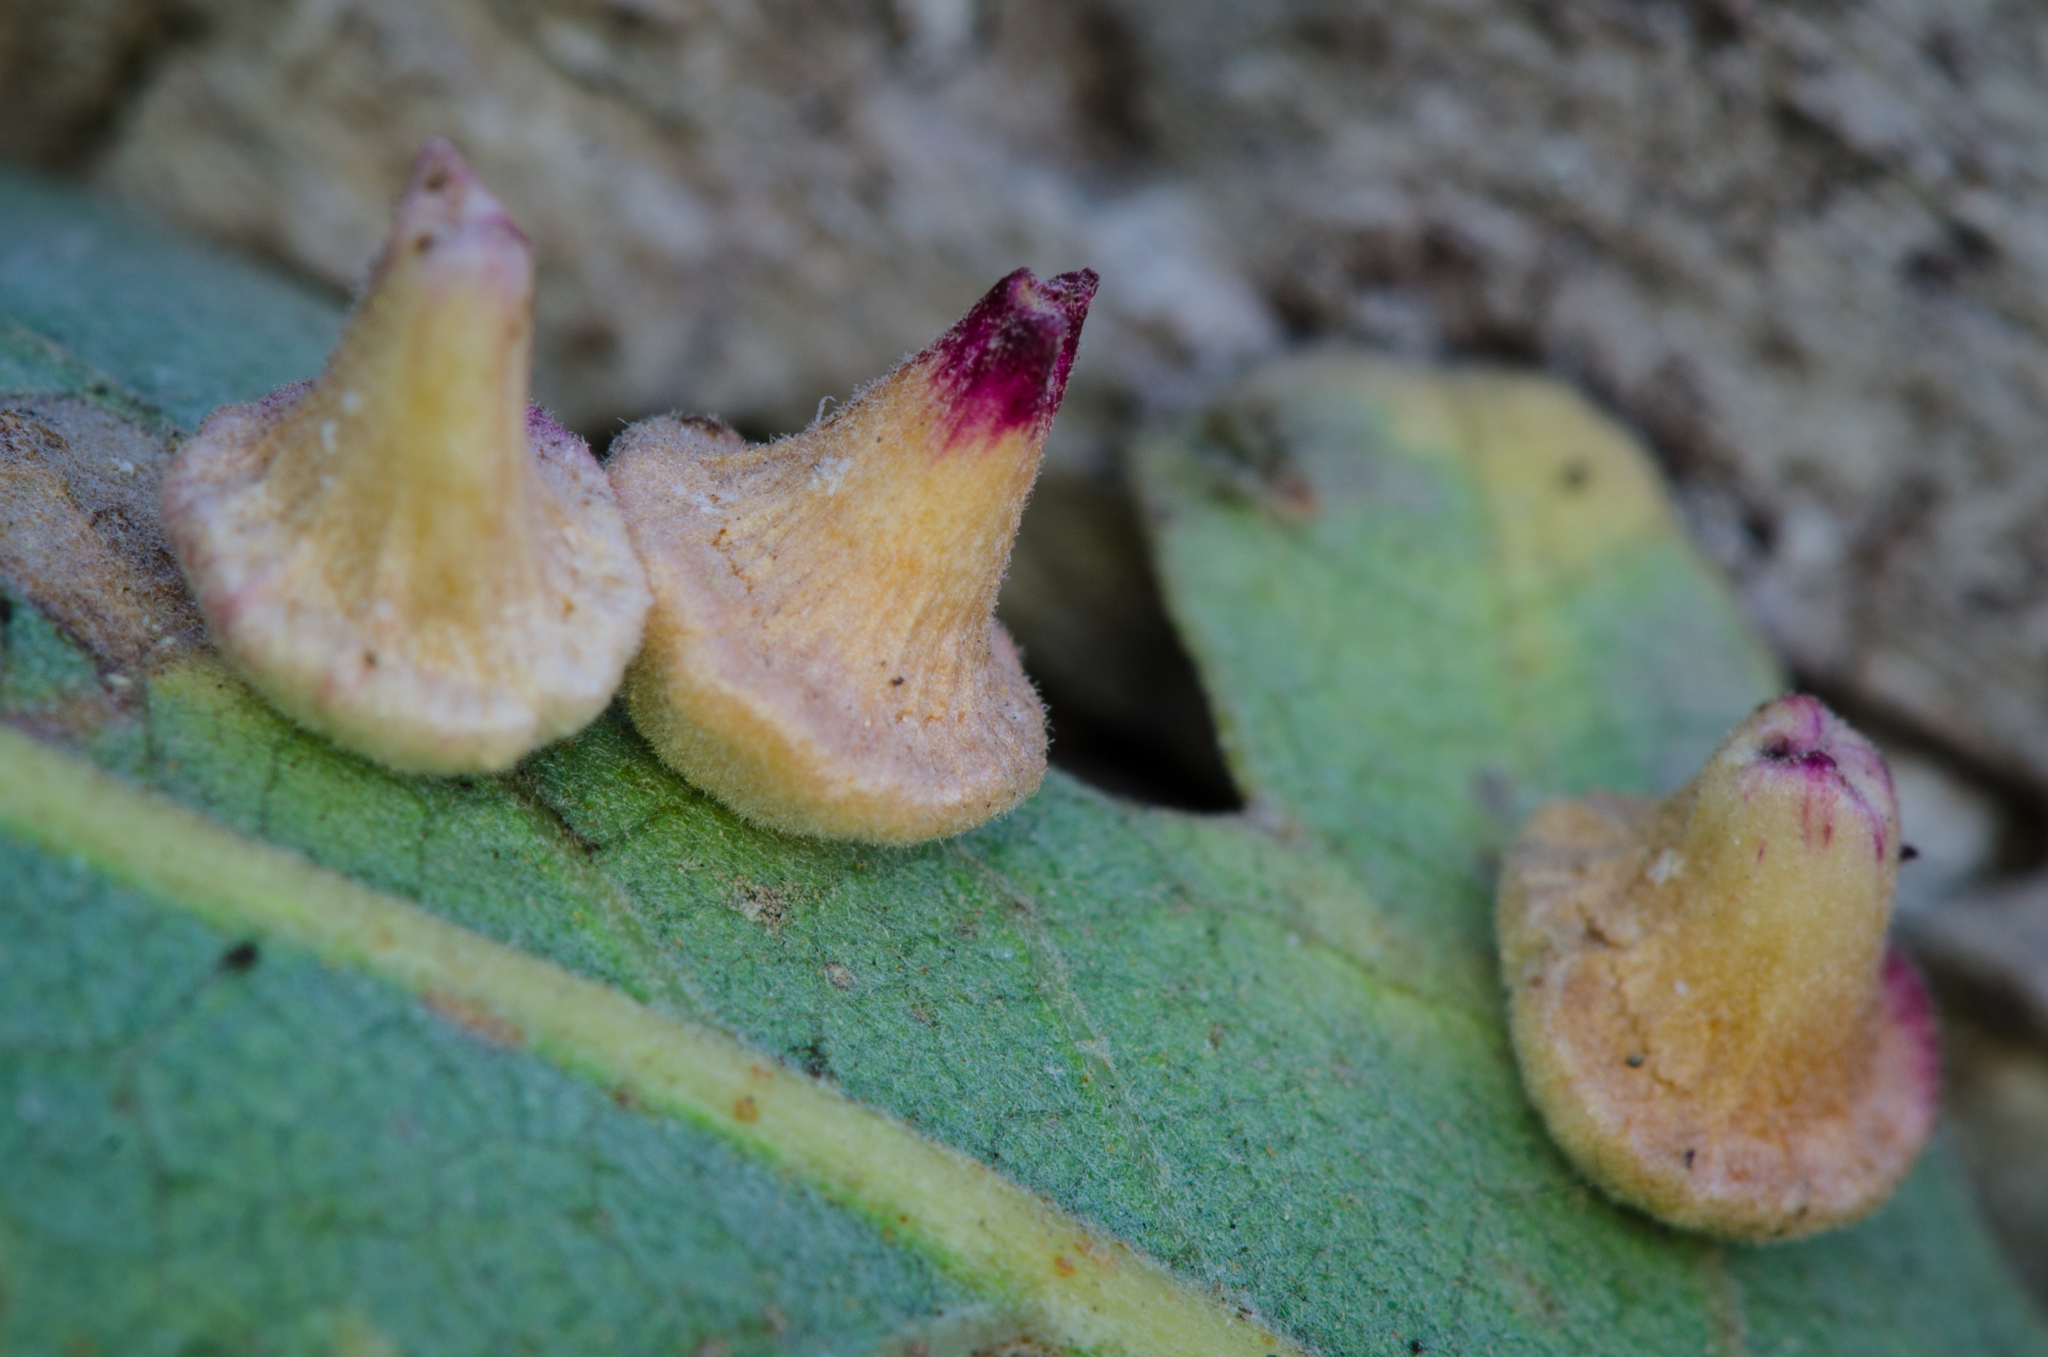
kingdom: Animalia
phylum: Arthropoda
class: Insecta
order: Hymenoptera
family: Cynipidae
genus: Andricus
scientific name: Andricus
